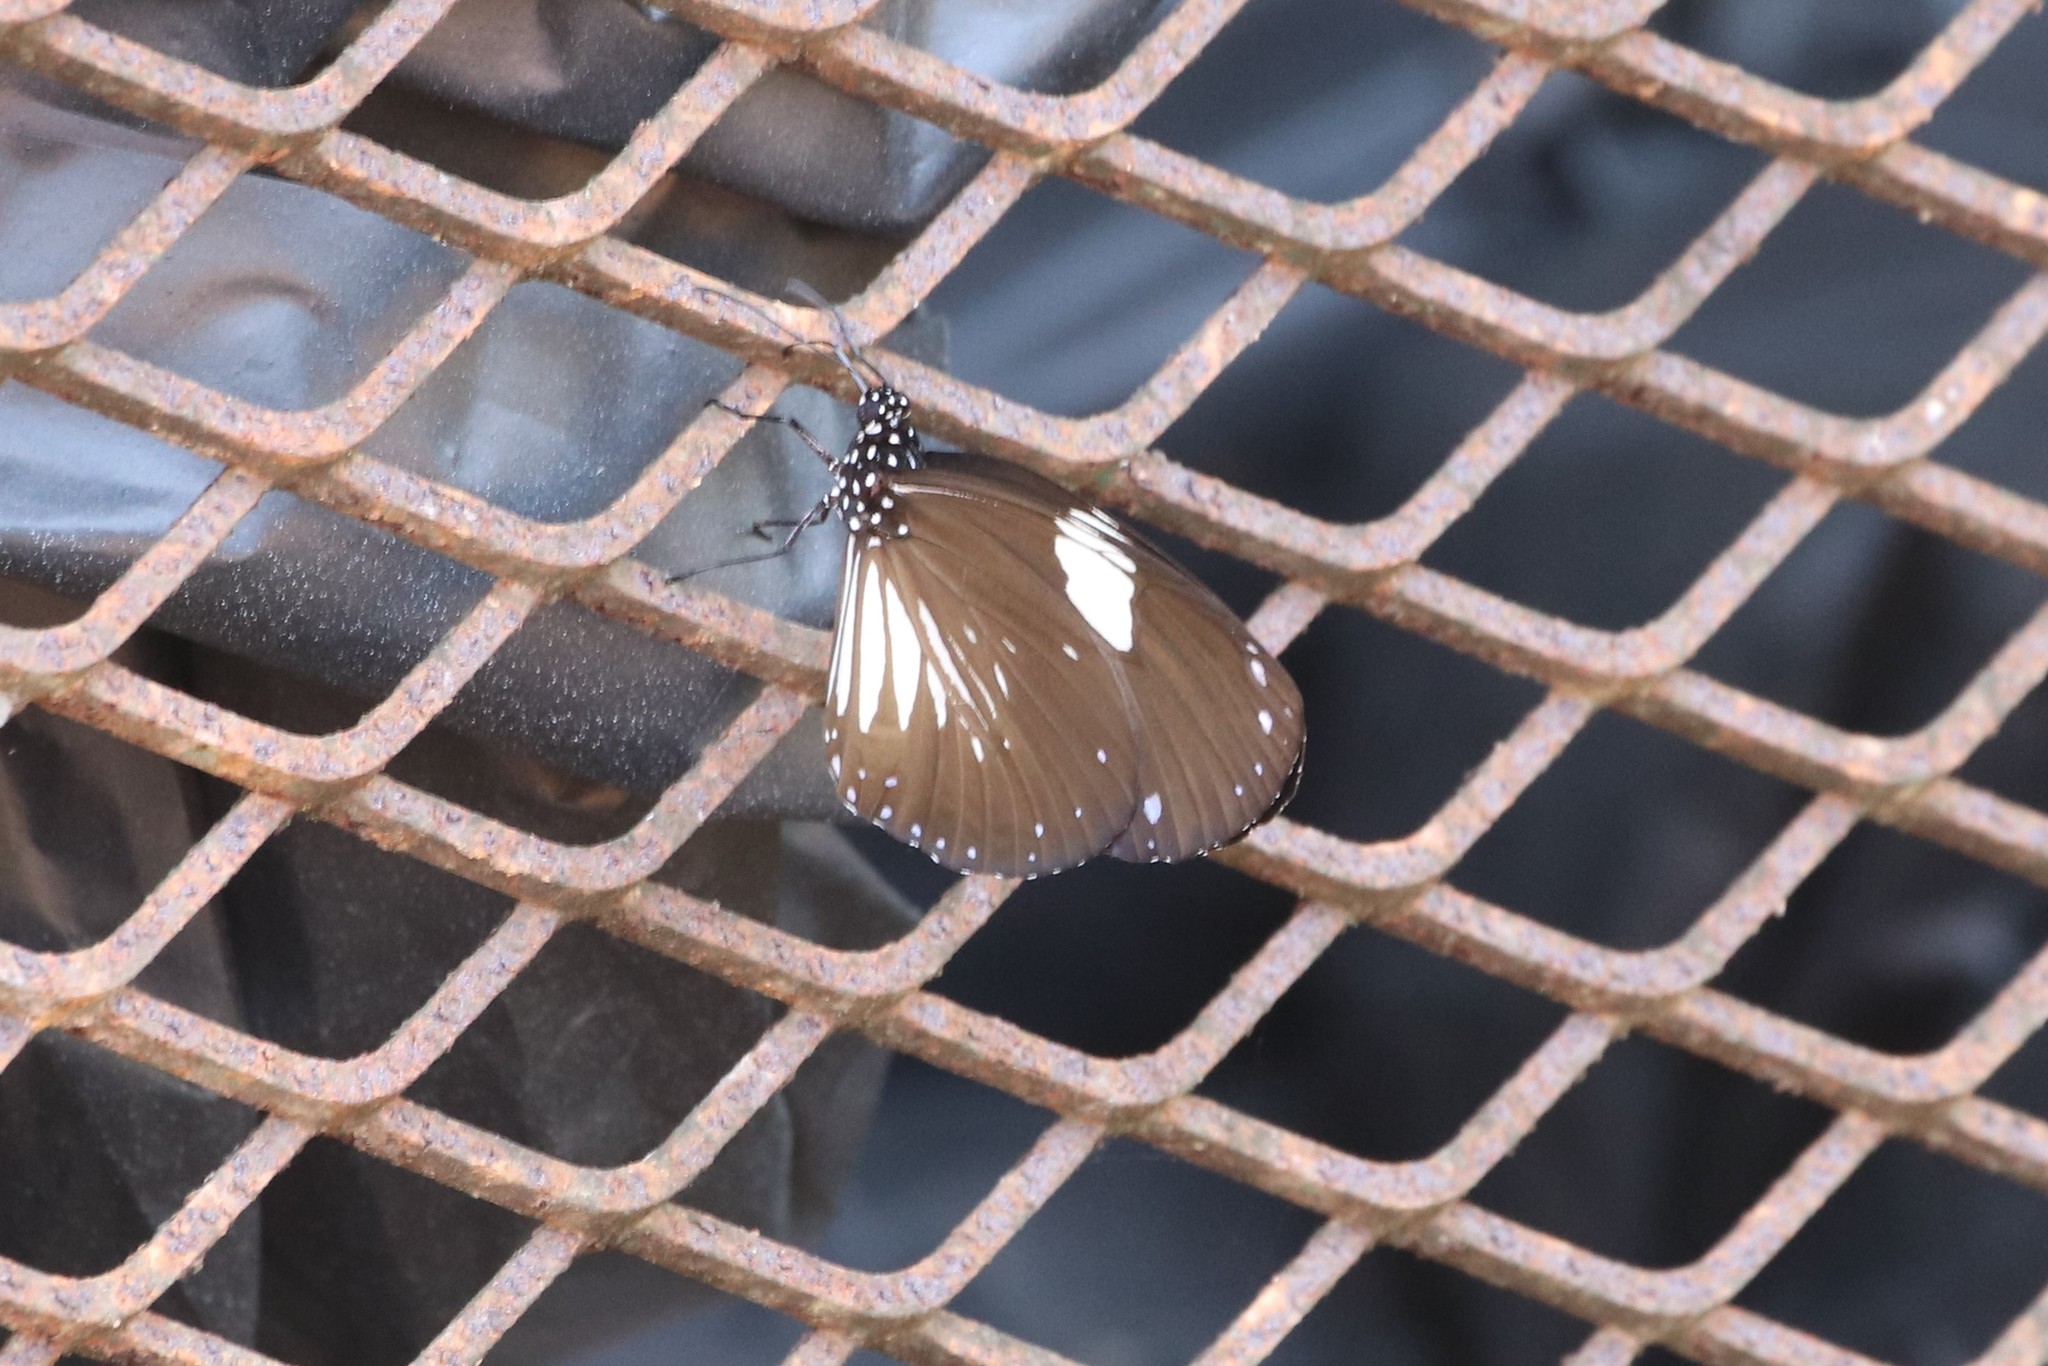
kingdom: Animalia
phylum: Arthropoda
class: Insecta
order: Lepidoptera
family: Nymphalidae
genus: Euploea
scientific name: Euploea radamanthus
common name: Magpie crow butterfly
